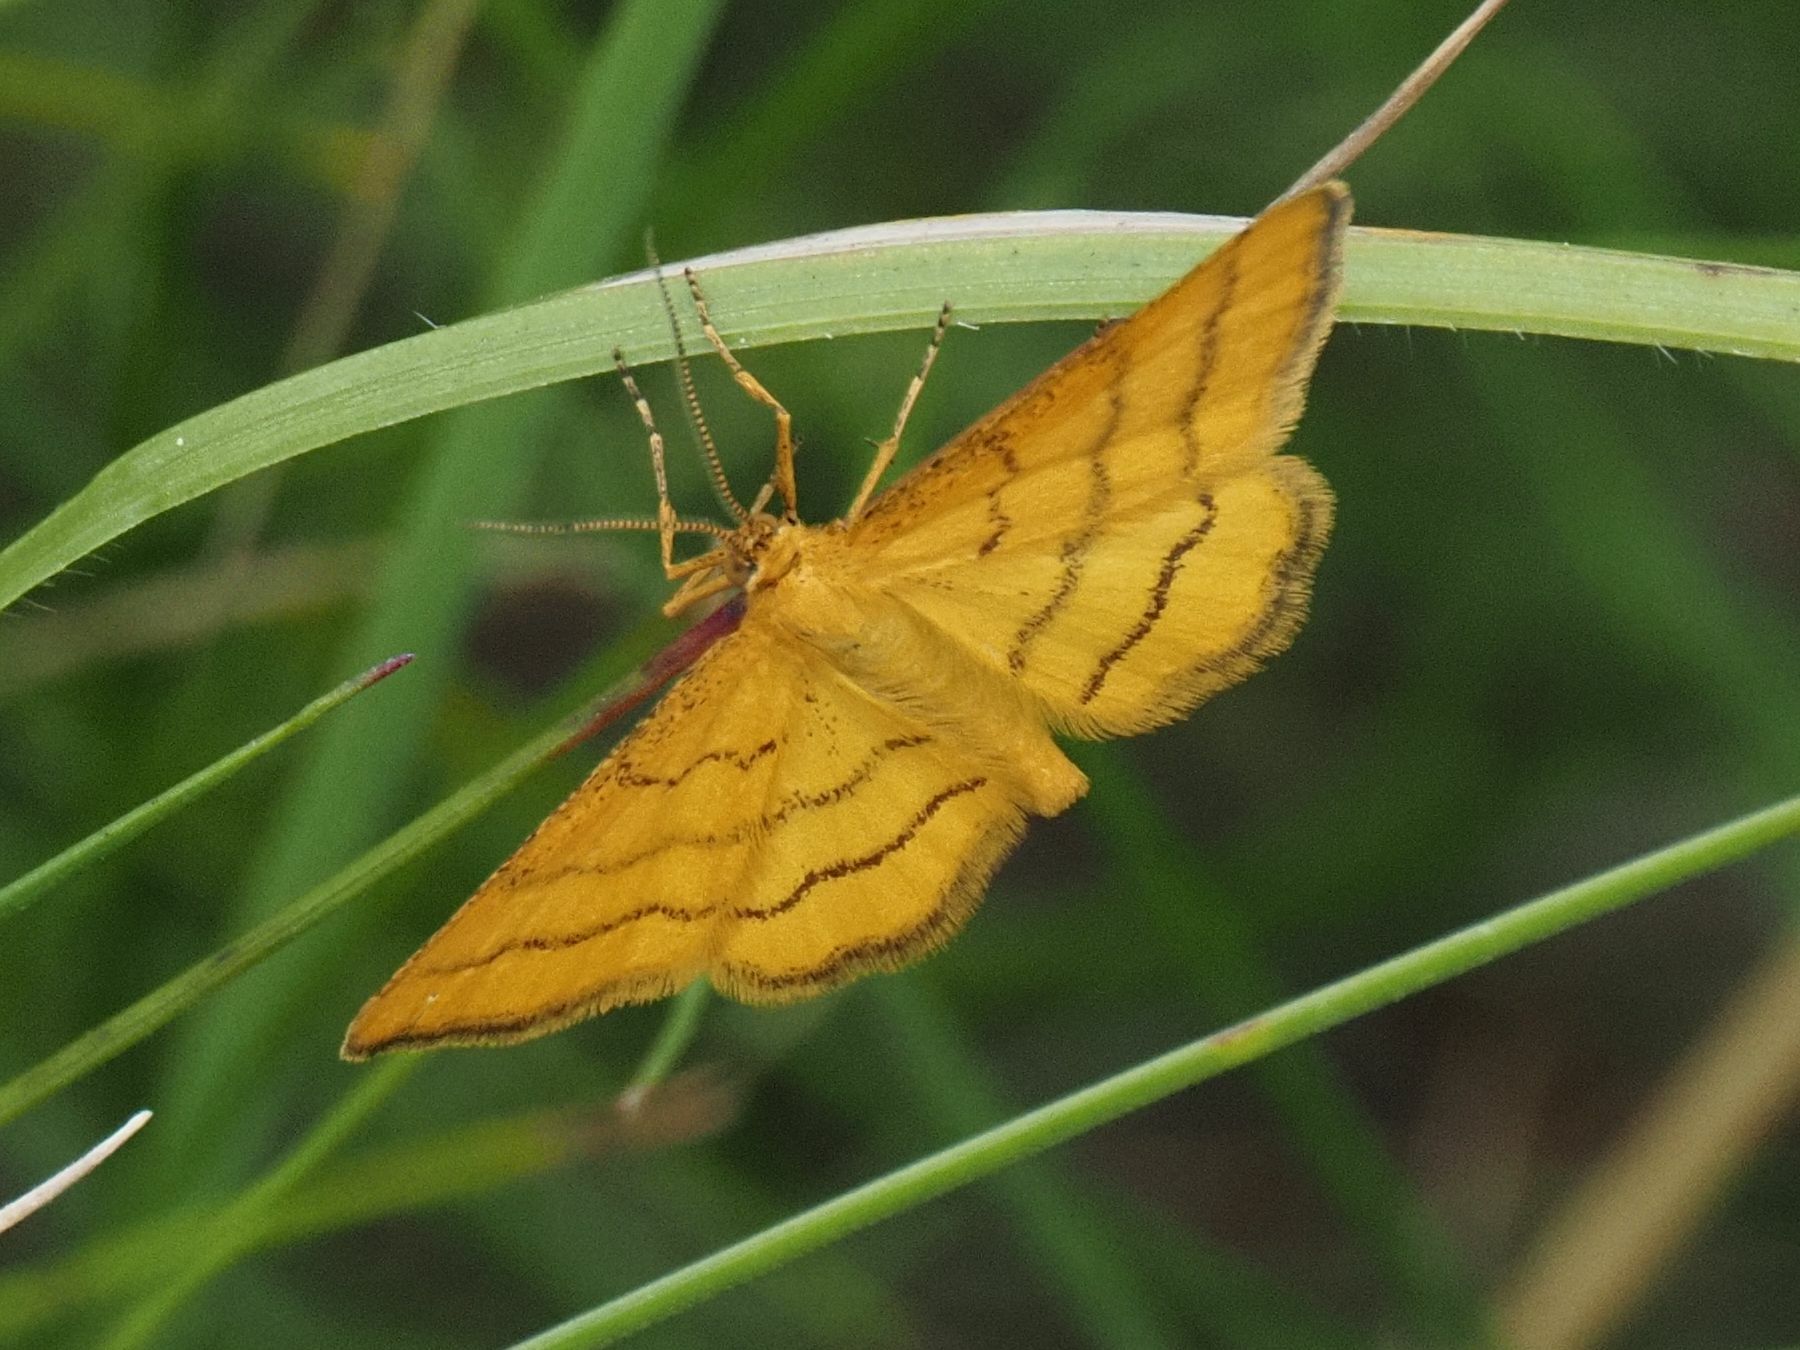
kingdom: Animalia
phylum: Arthropoda
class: Insecta
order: Lepidoptera
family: Geometridae
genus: Idaea
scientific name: Idaea aureolaria
